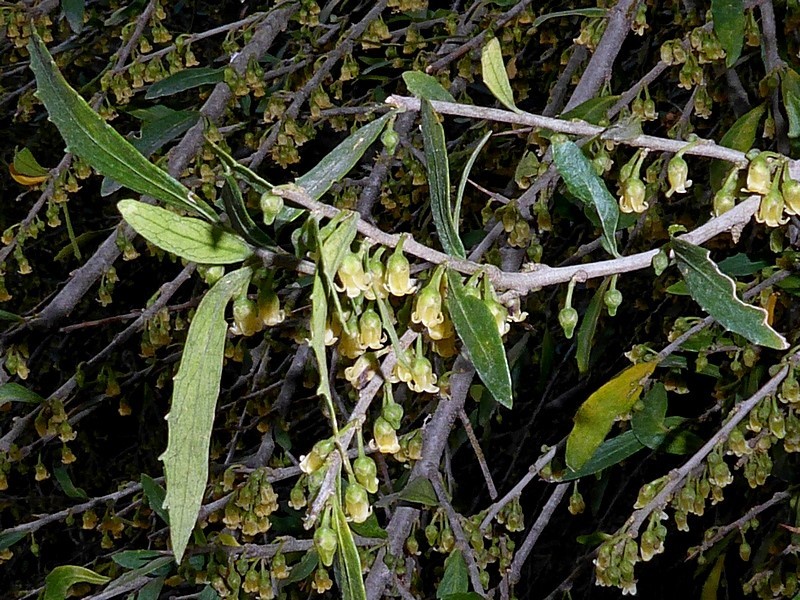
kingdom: Plantae
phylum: Tracheophyta
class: Magnoliopsida
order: Malpighiales
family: Violaceae
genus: Melicytus
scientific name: Melicytus dentatus
